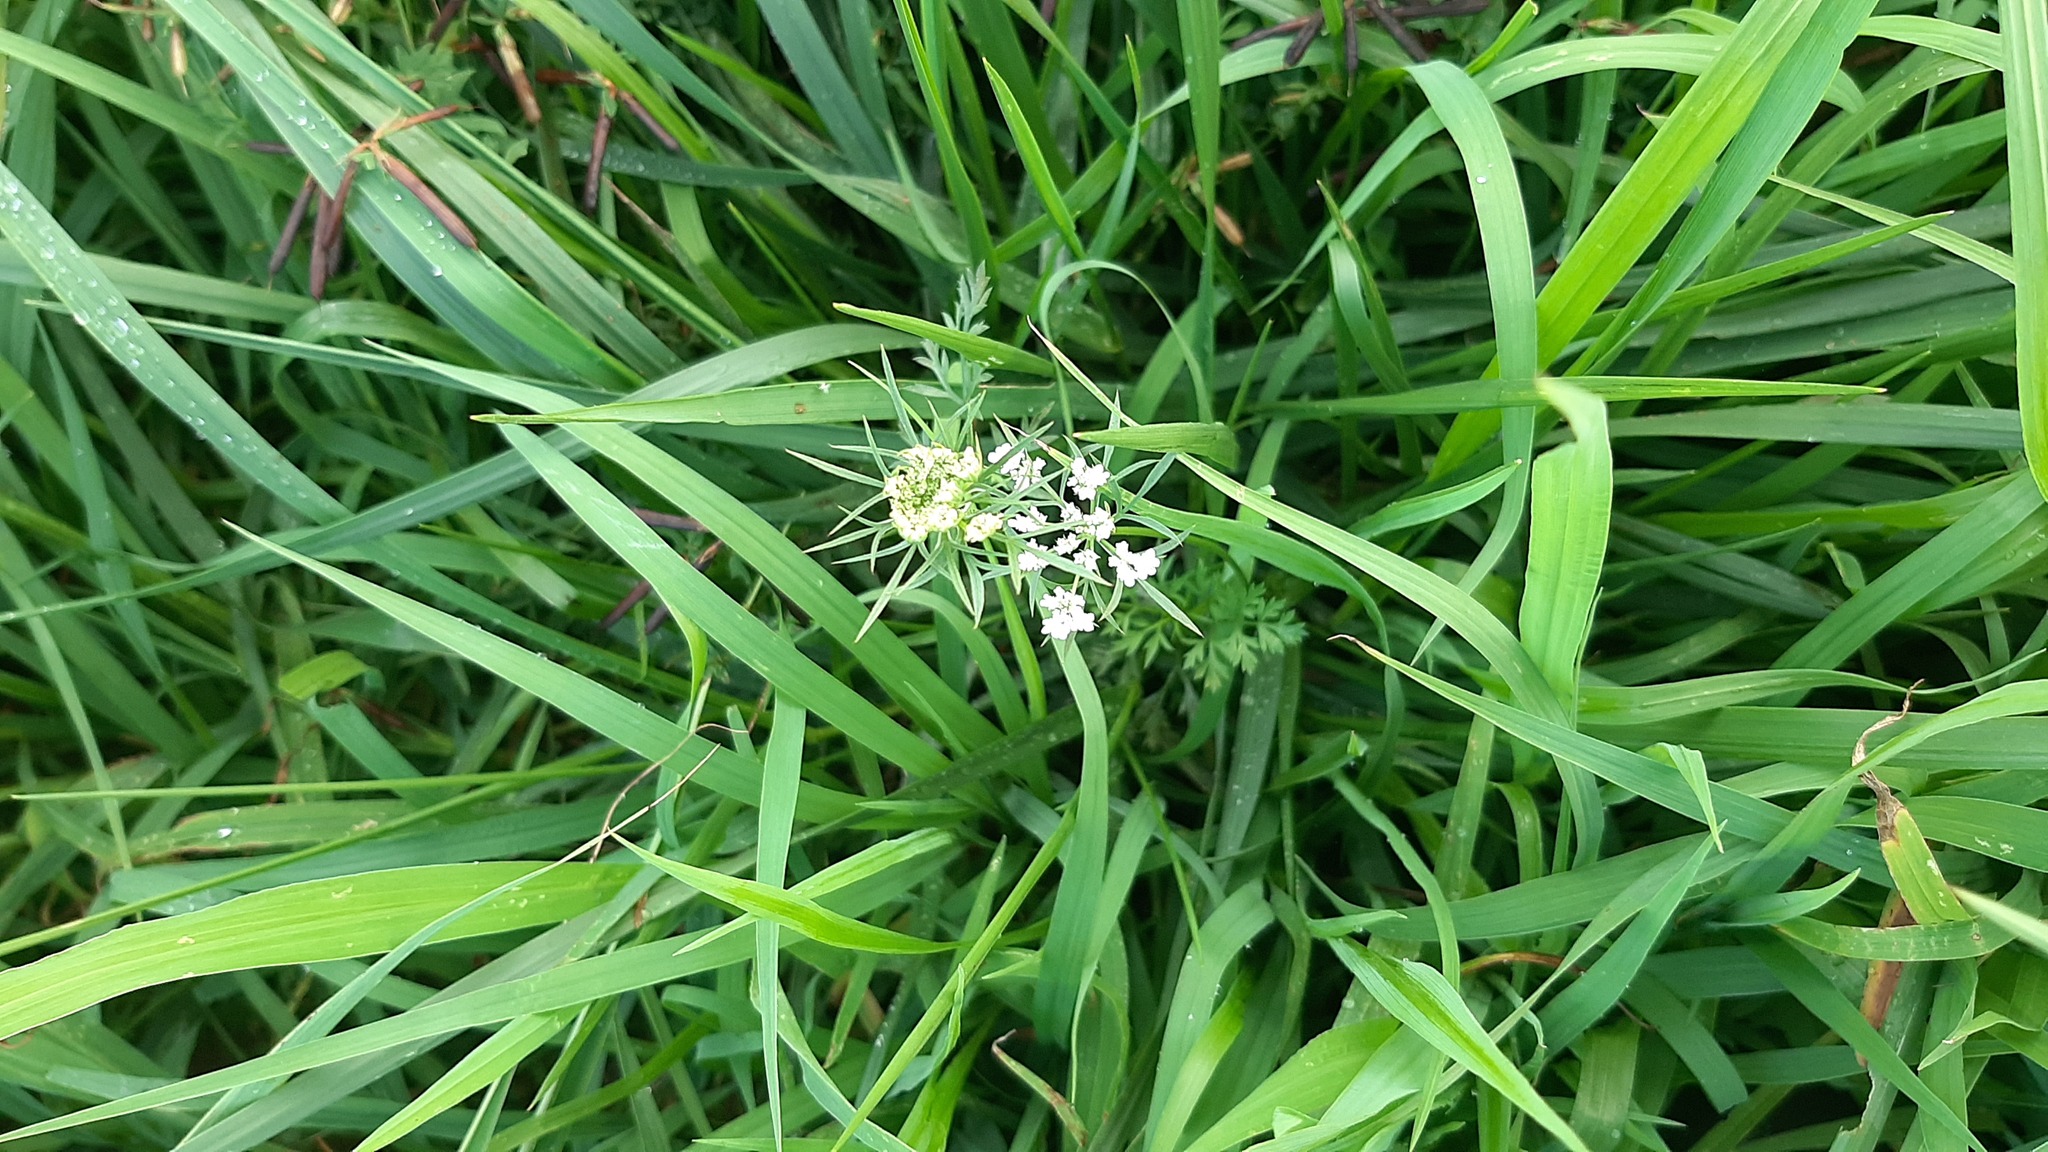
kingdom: Plantae
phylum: Tracheophyta
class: Magnoliopsida
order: Apiales
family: Apiaceae
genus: Daucus
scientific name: Daucus carota
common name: Wild carrot
